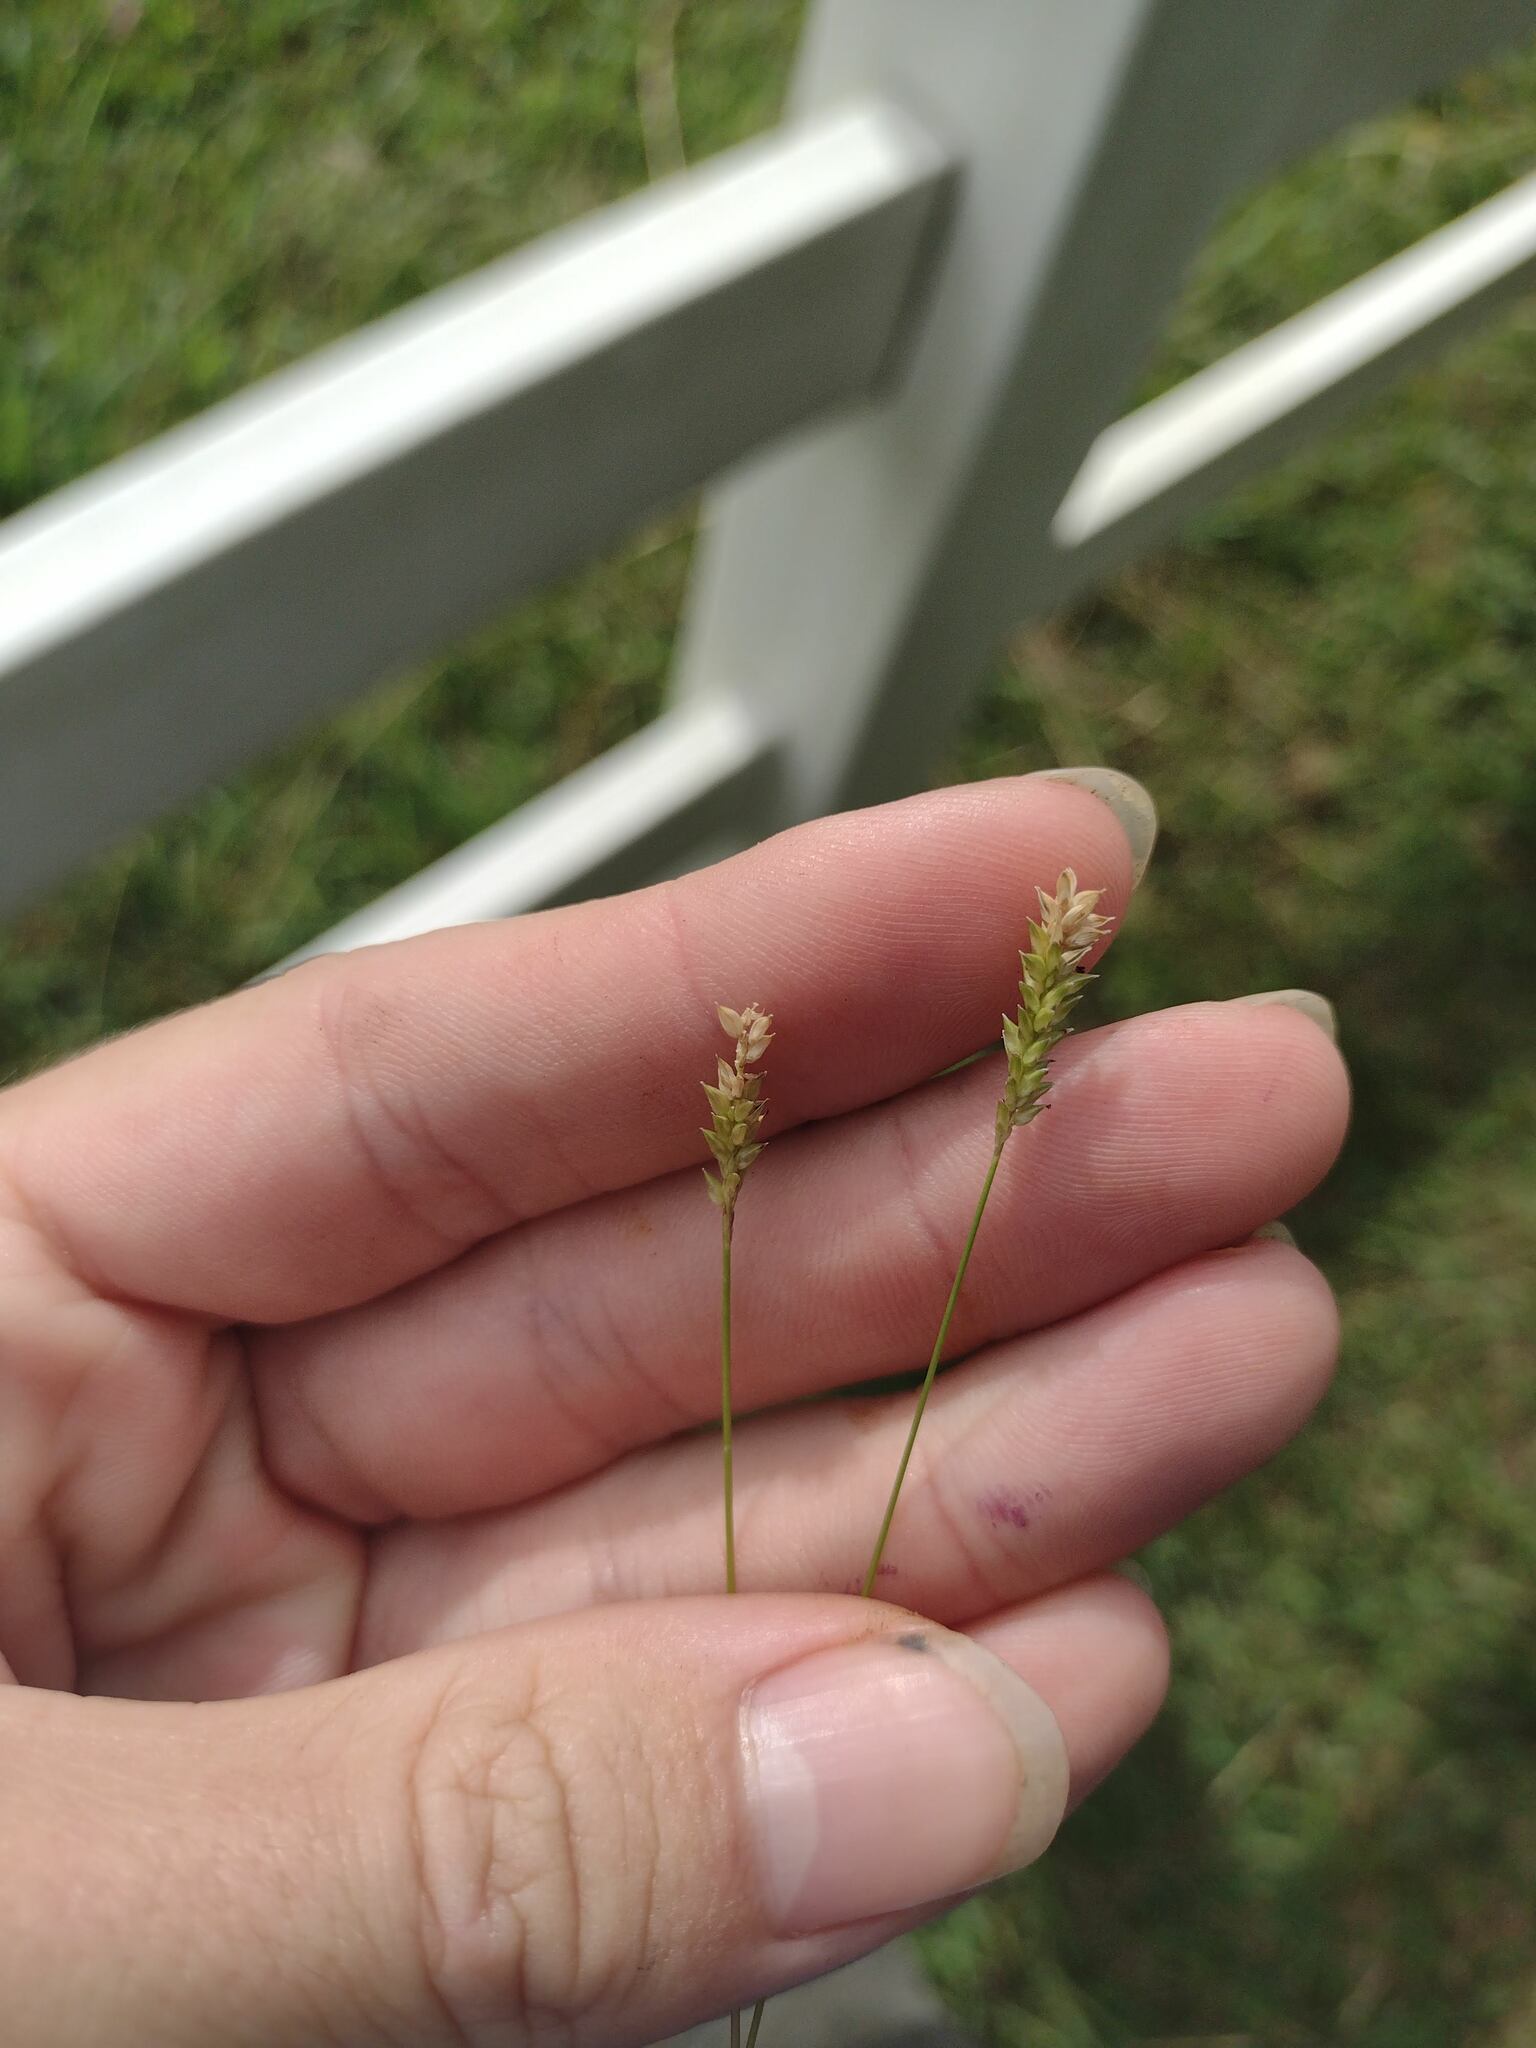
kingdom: Plantae
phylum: Tracheophyta
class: Liliopsida
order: Poales
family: Poaceae
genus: Sacciolepis
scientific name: Sacciolepis indica
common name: Glenwoodgrass
